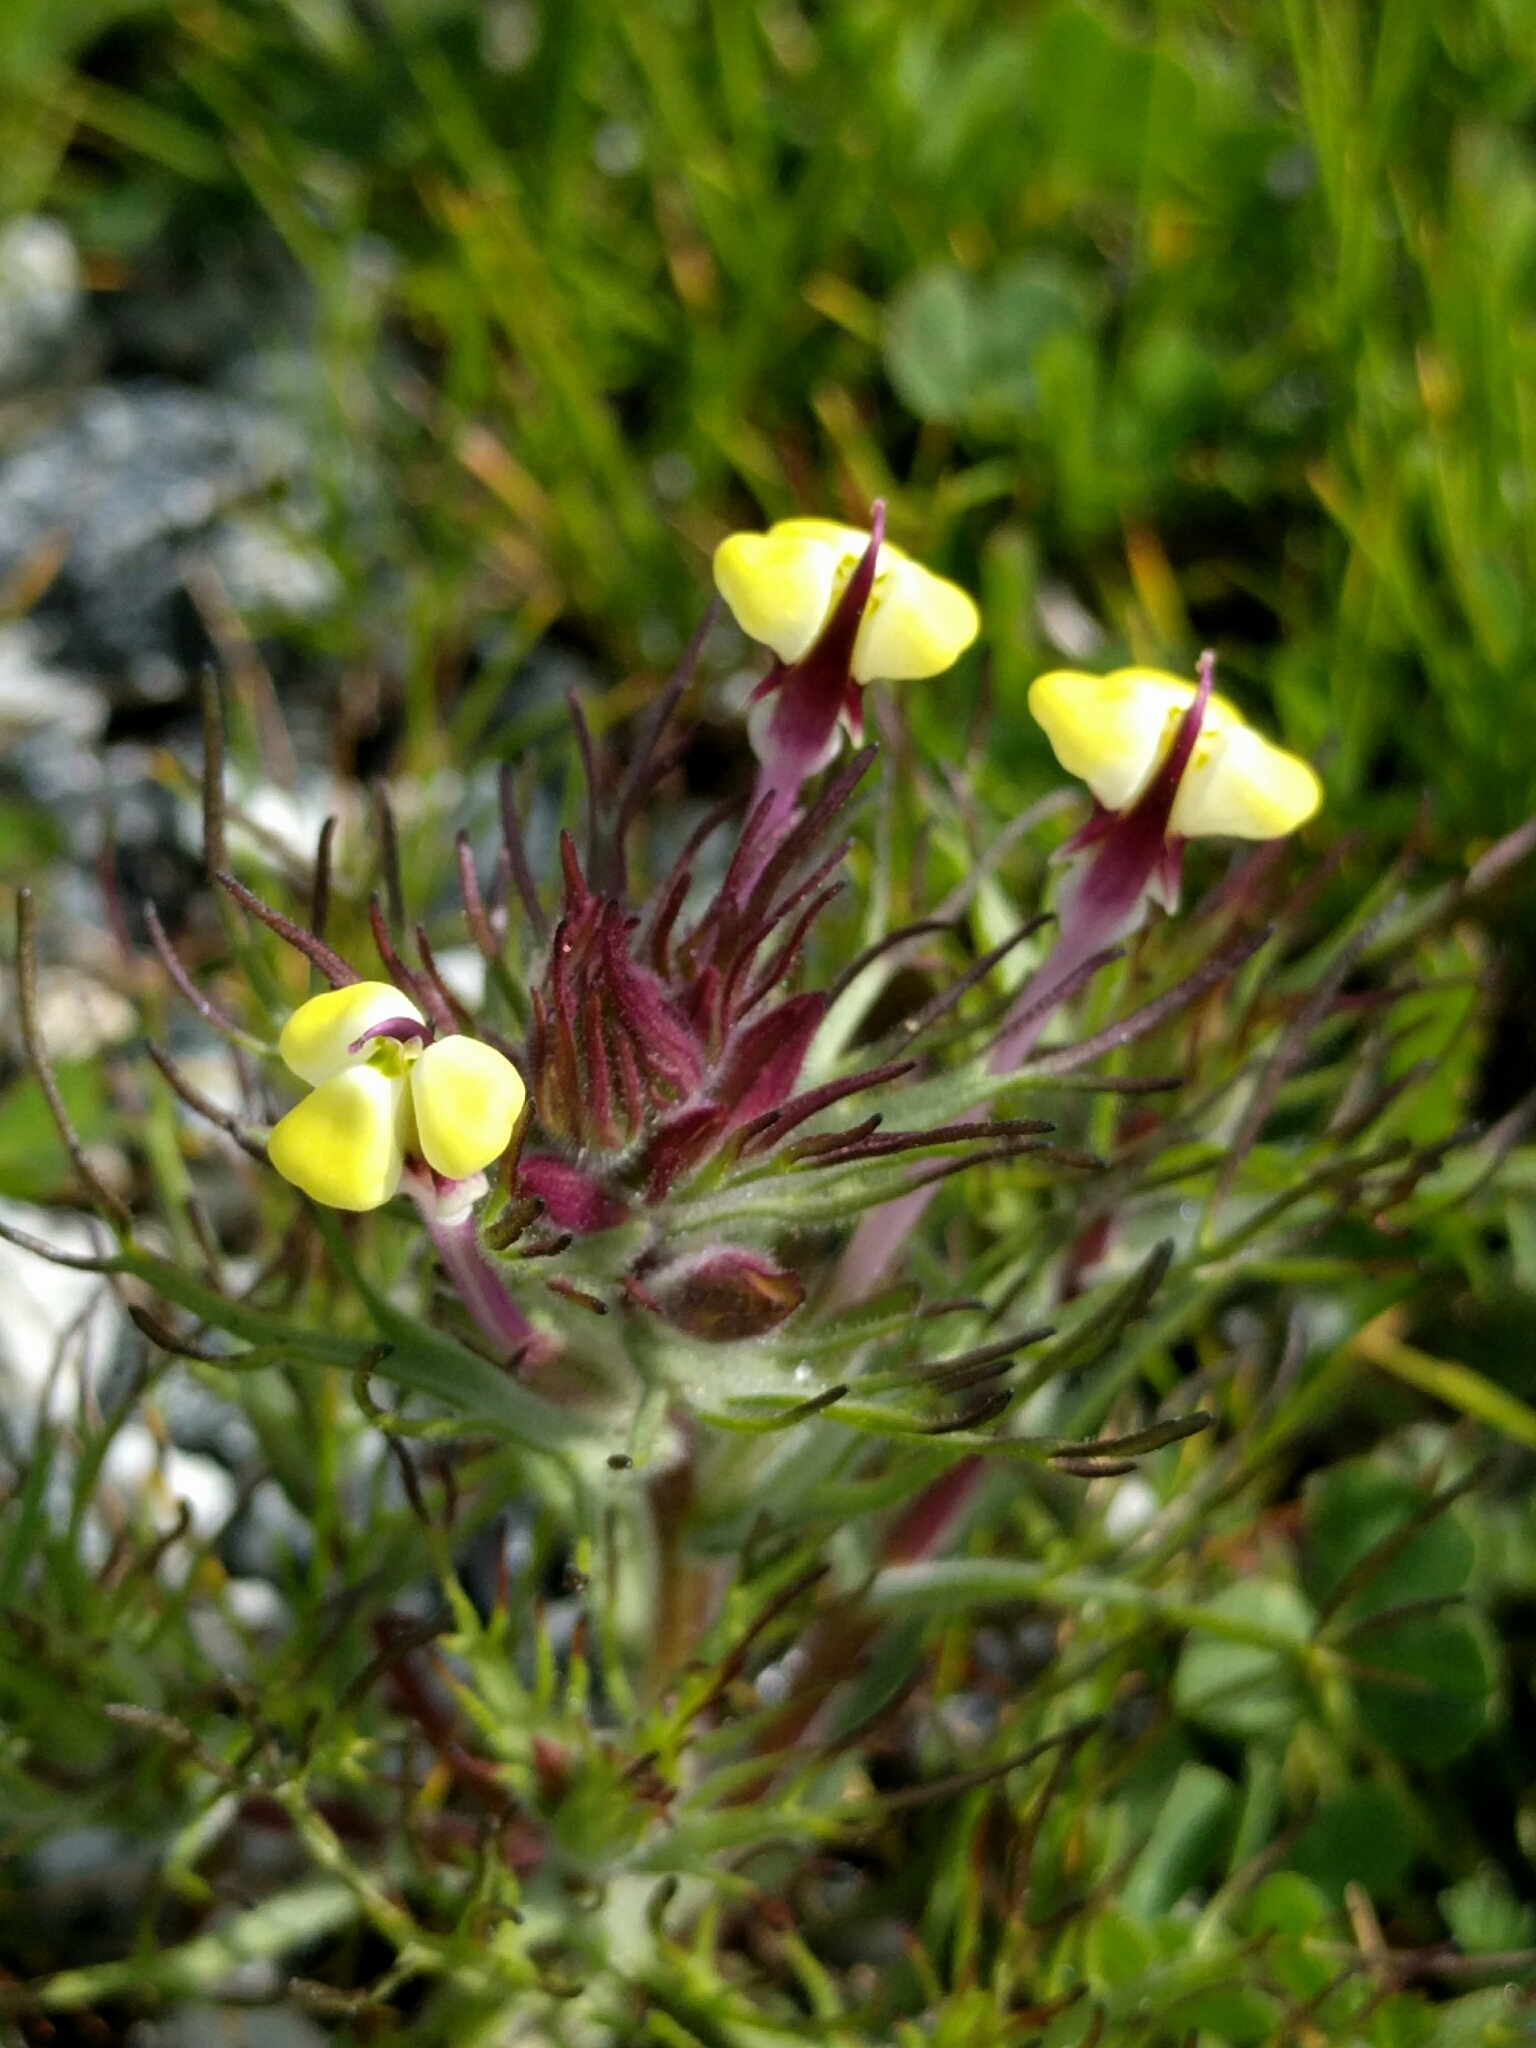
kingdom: Plantae
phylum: Tracheophyta
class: Magnoliopsida
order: Lamiales
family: Orobanchaceae
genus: Triphysaria
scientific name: Triphysaria eriantha
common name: Johnny-tuck
